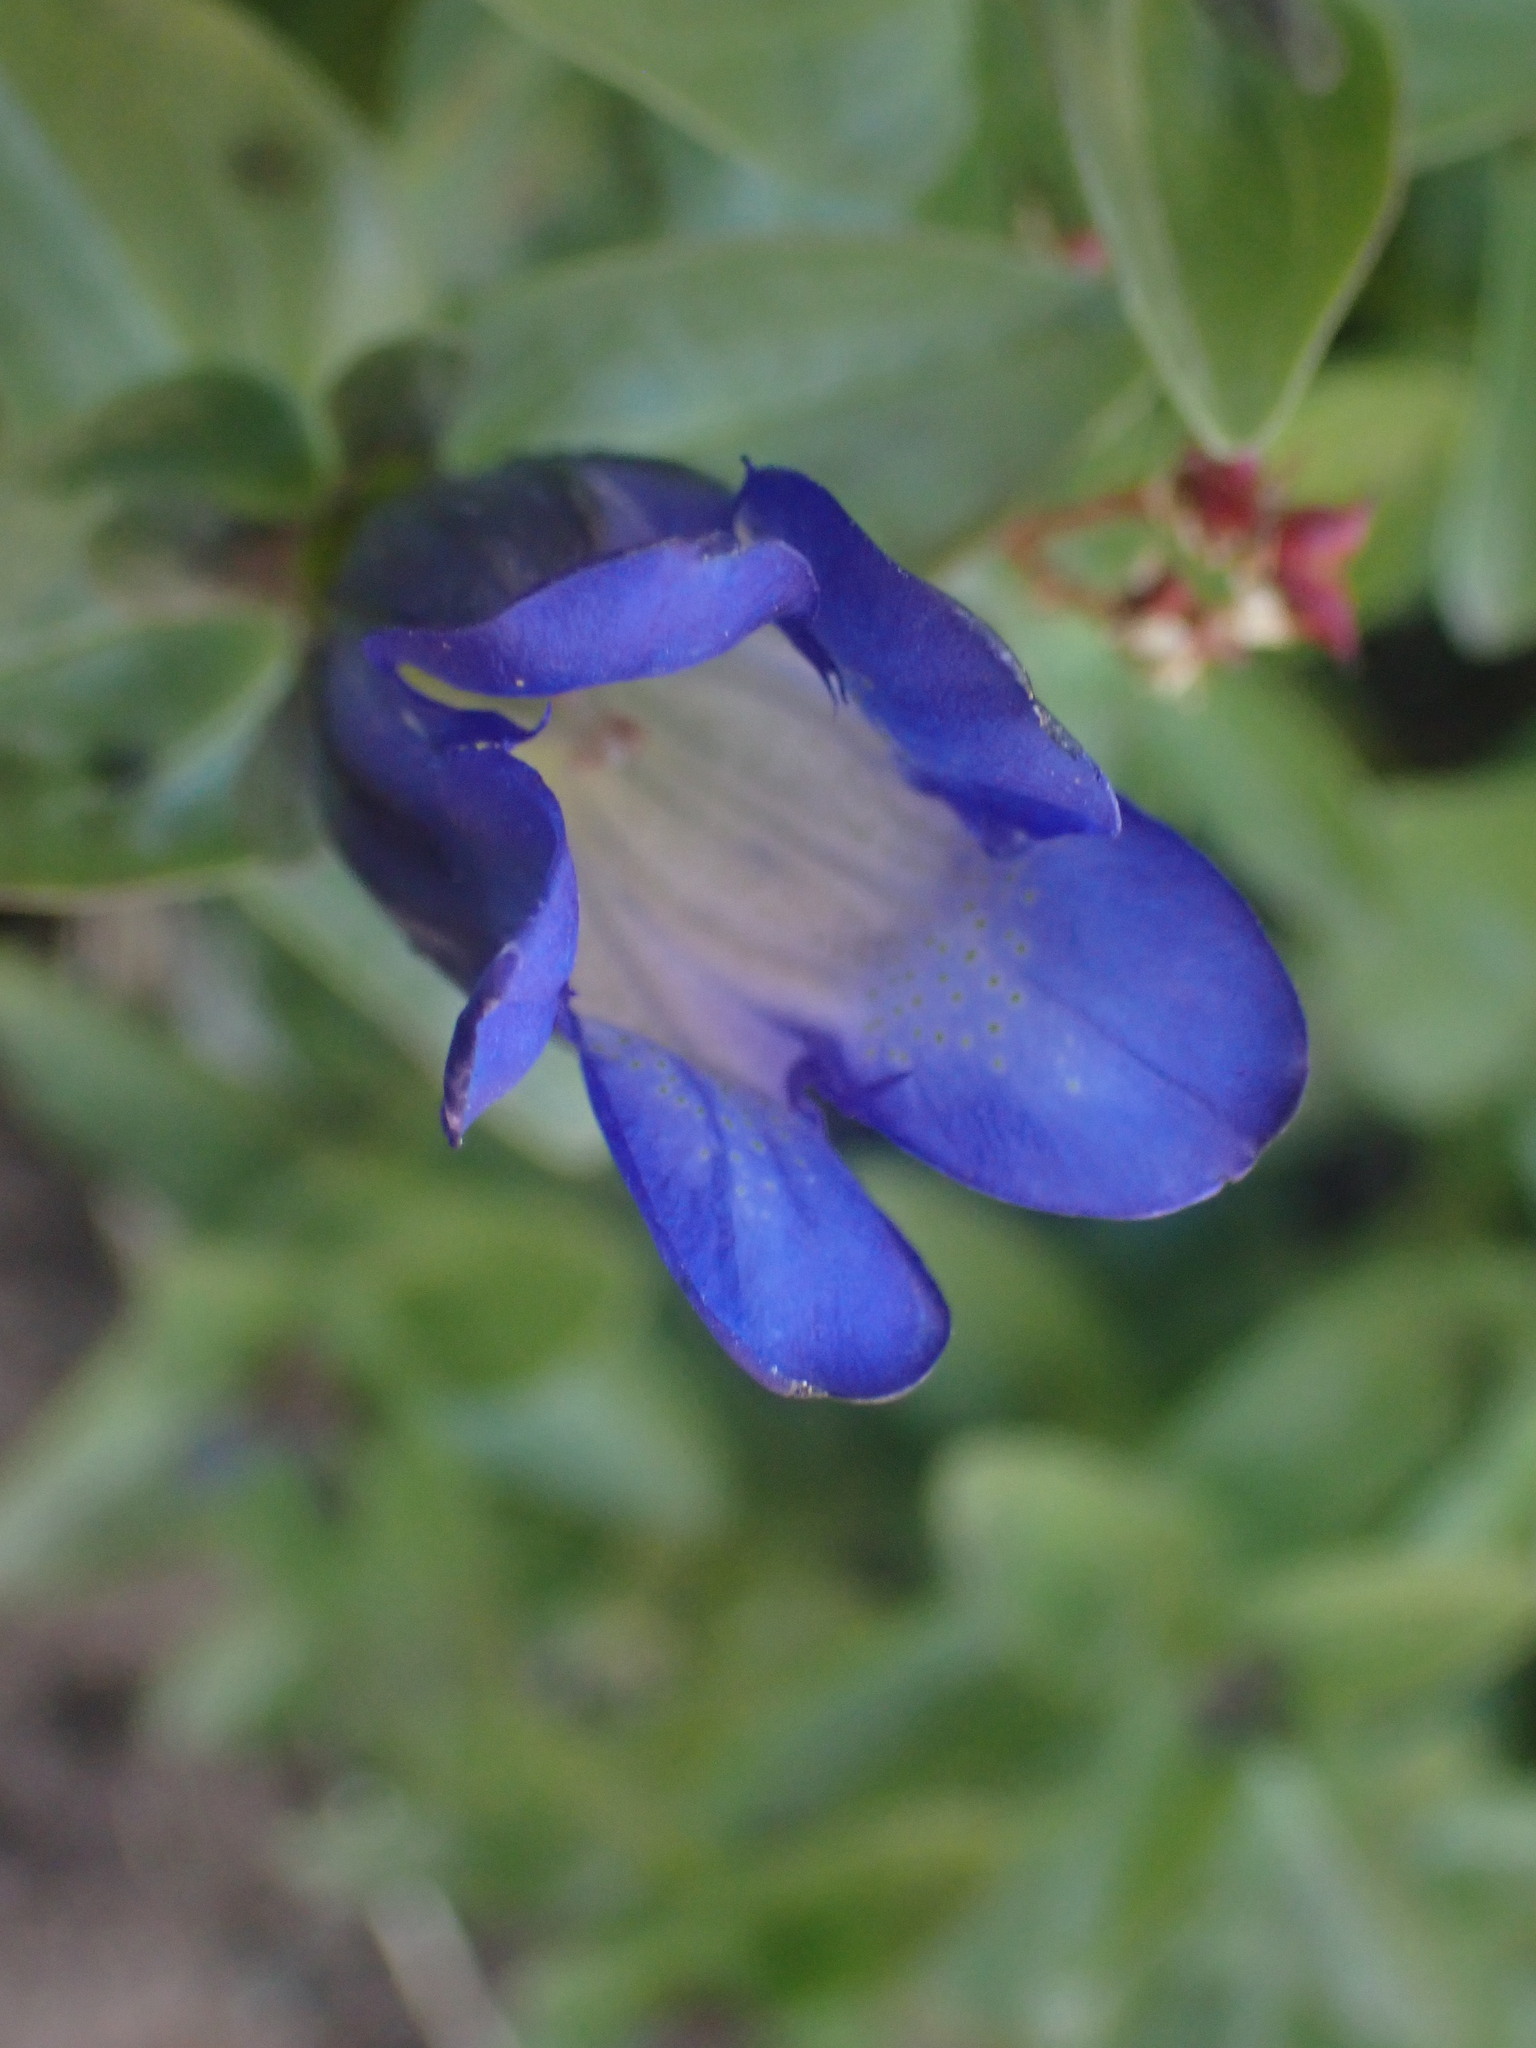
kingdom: Plantae
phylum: Tracheophyta
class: Magnoliopsida
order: Gentianales
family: Gentianaceae
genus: Gentiana
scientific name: Gentiana calycosa
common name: Rainier pleated gentian
